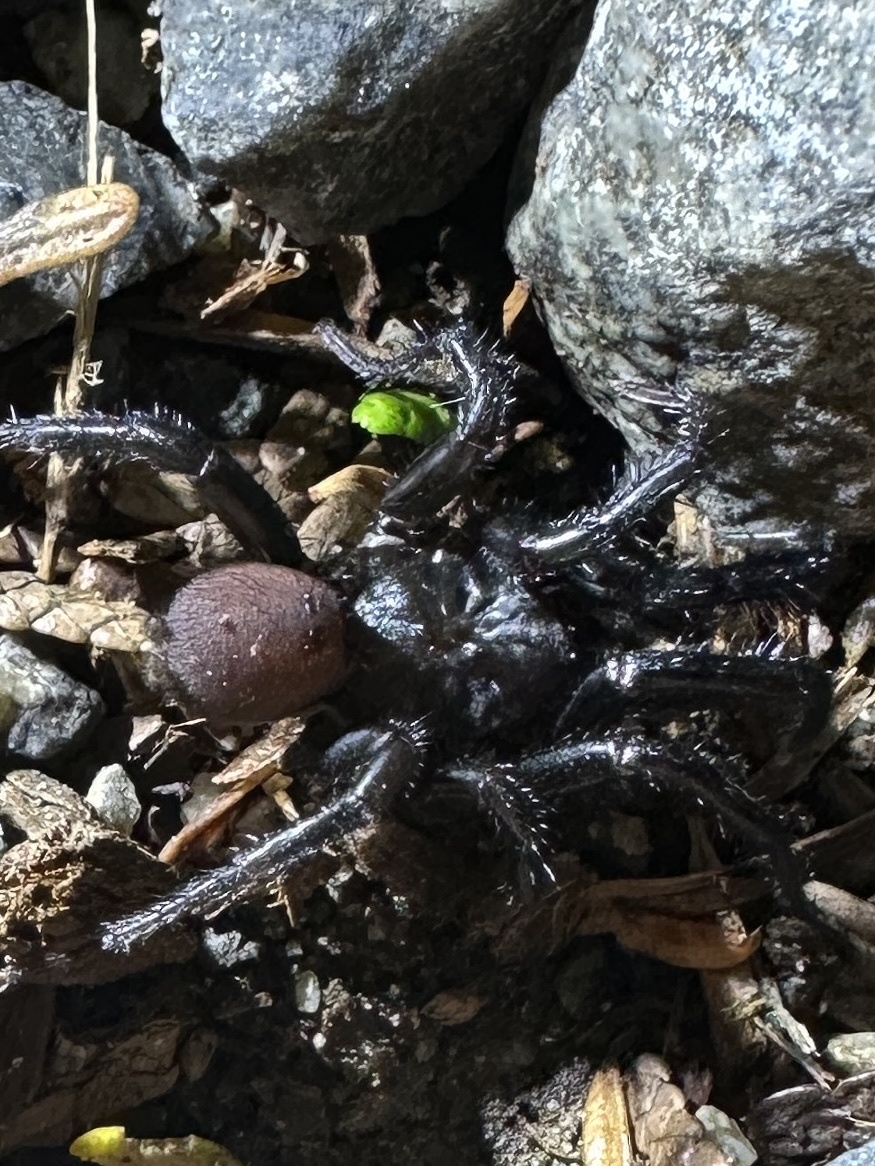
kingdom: Animalia
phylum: Arthropoda
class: Arachnida
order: Araneae
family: Antrodiaetidae
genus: Antrodiaetus
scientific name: Antrodiaetus pacificus
